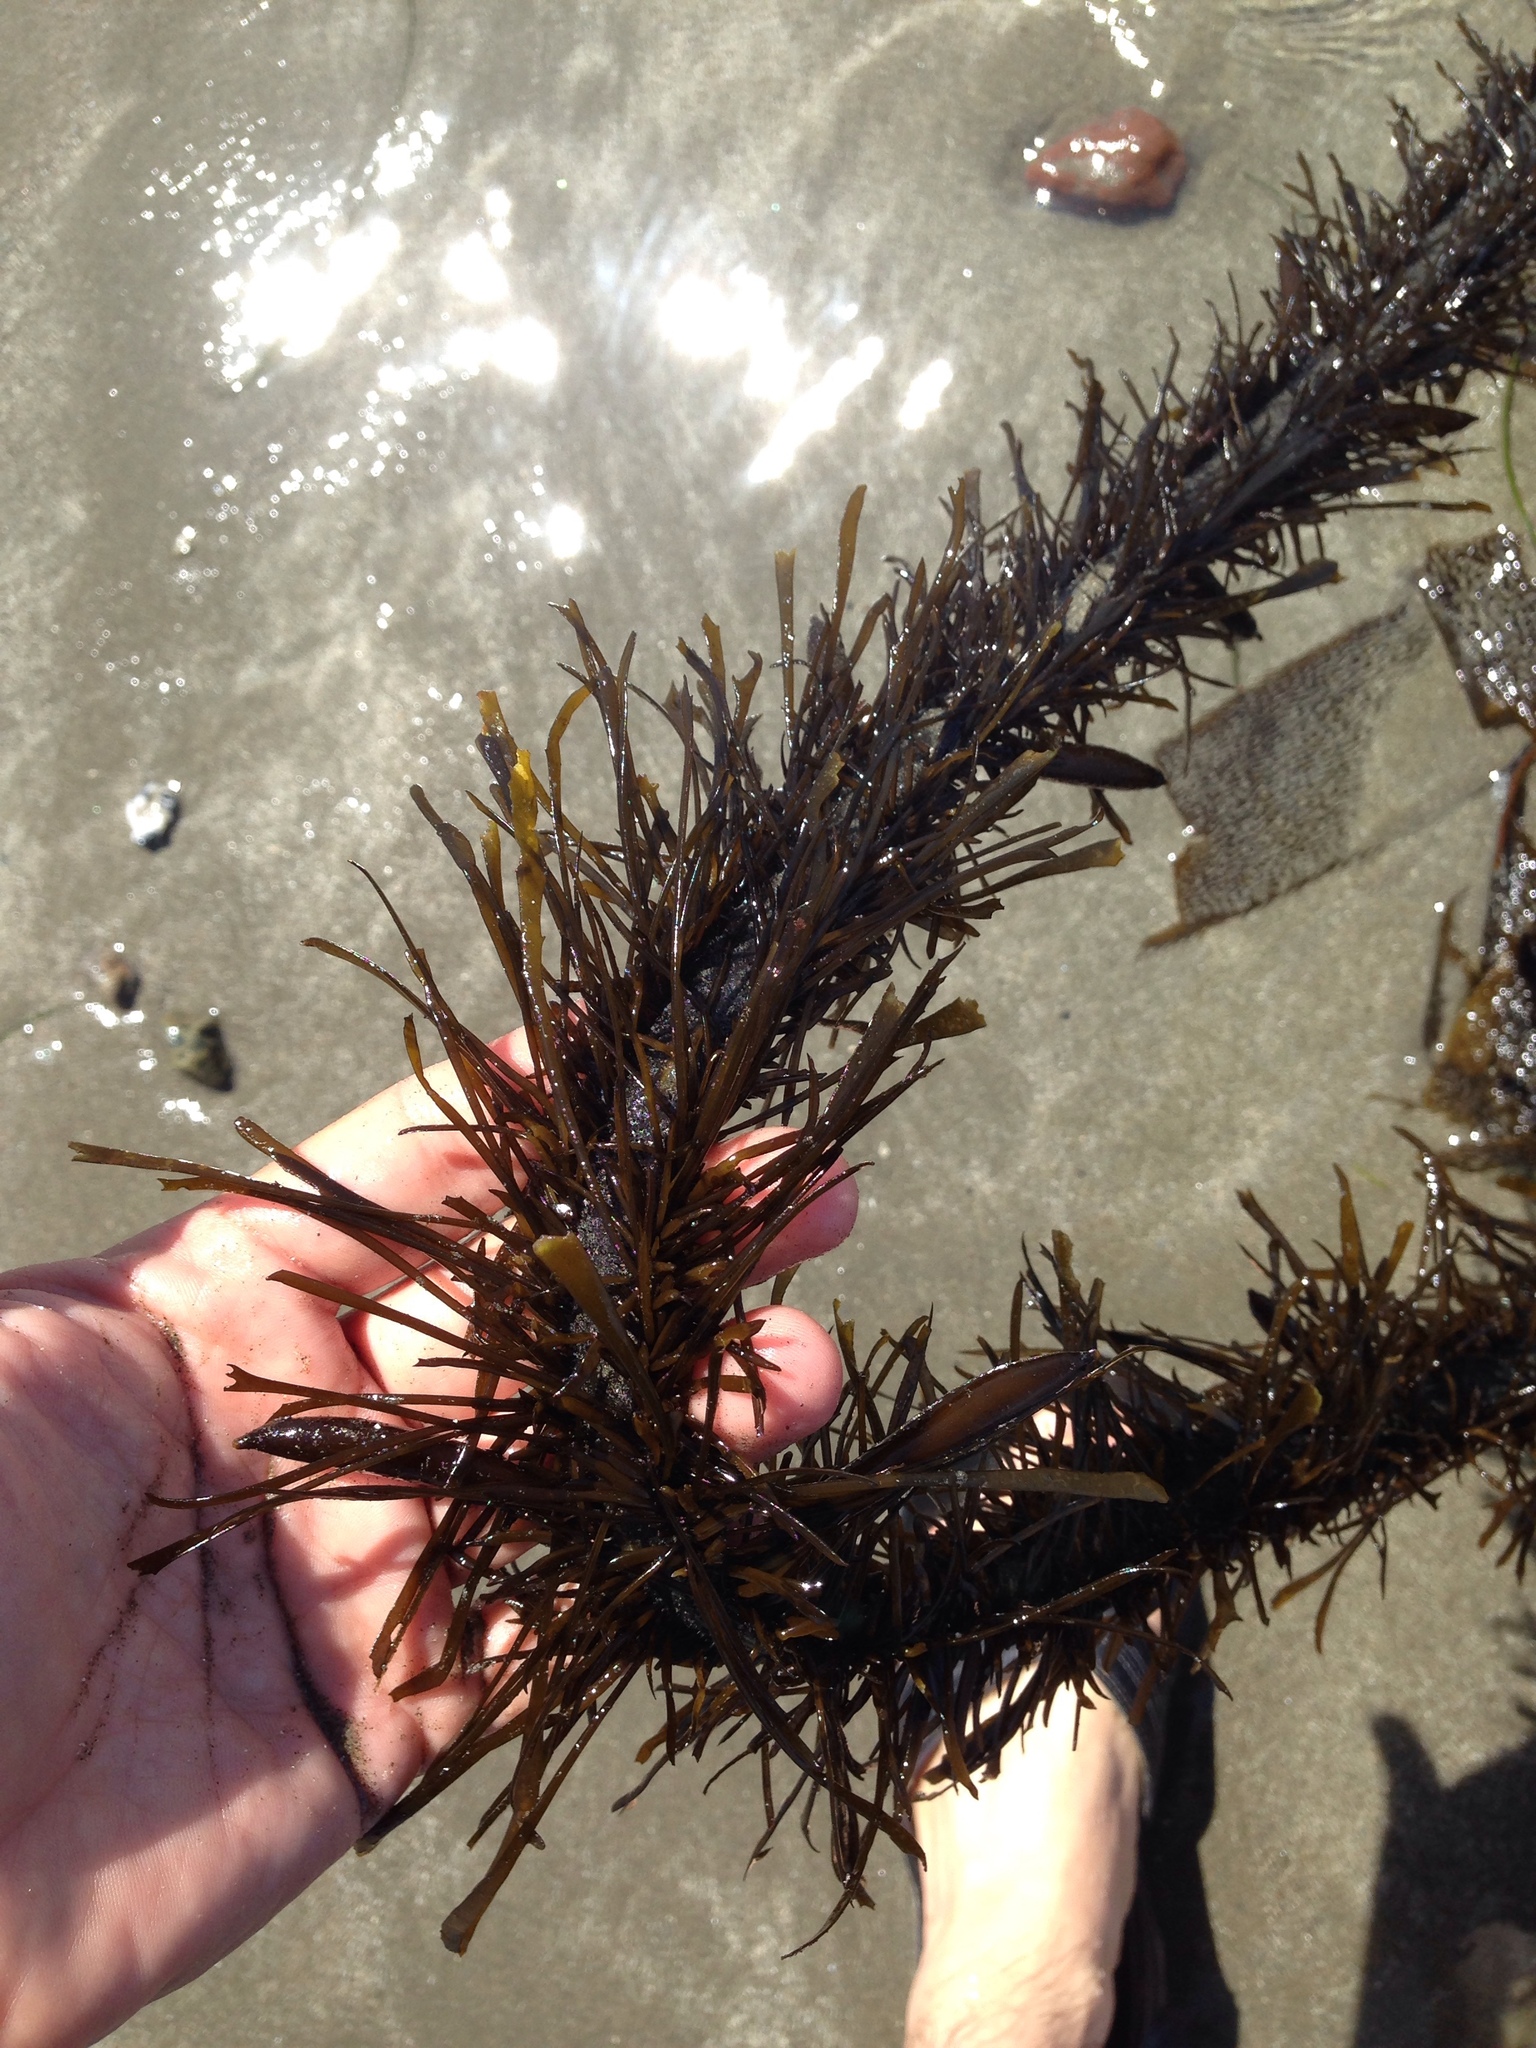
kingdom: Chromista
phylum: Ochrophyta
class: Phaeophyceae
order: Laminariales
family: Lessoniaceae
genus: Egregia
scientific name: Egregia menziesii
